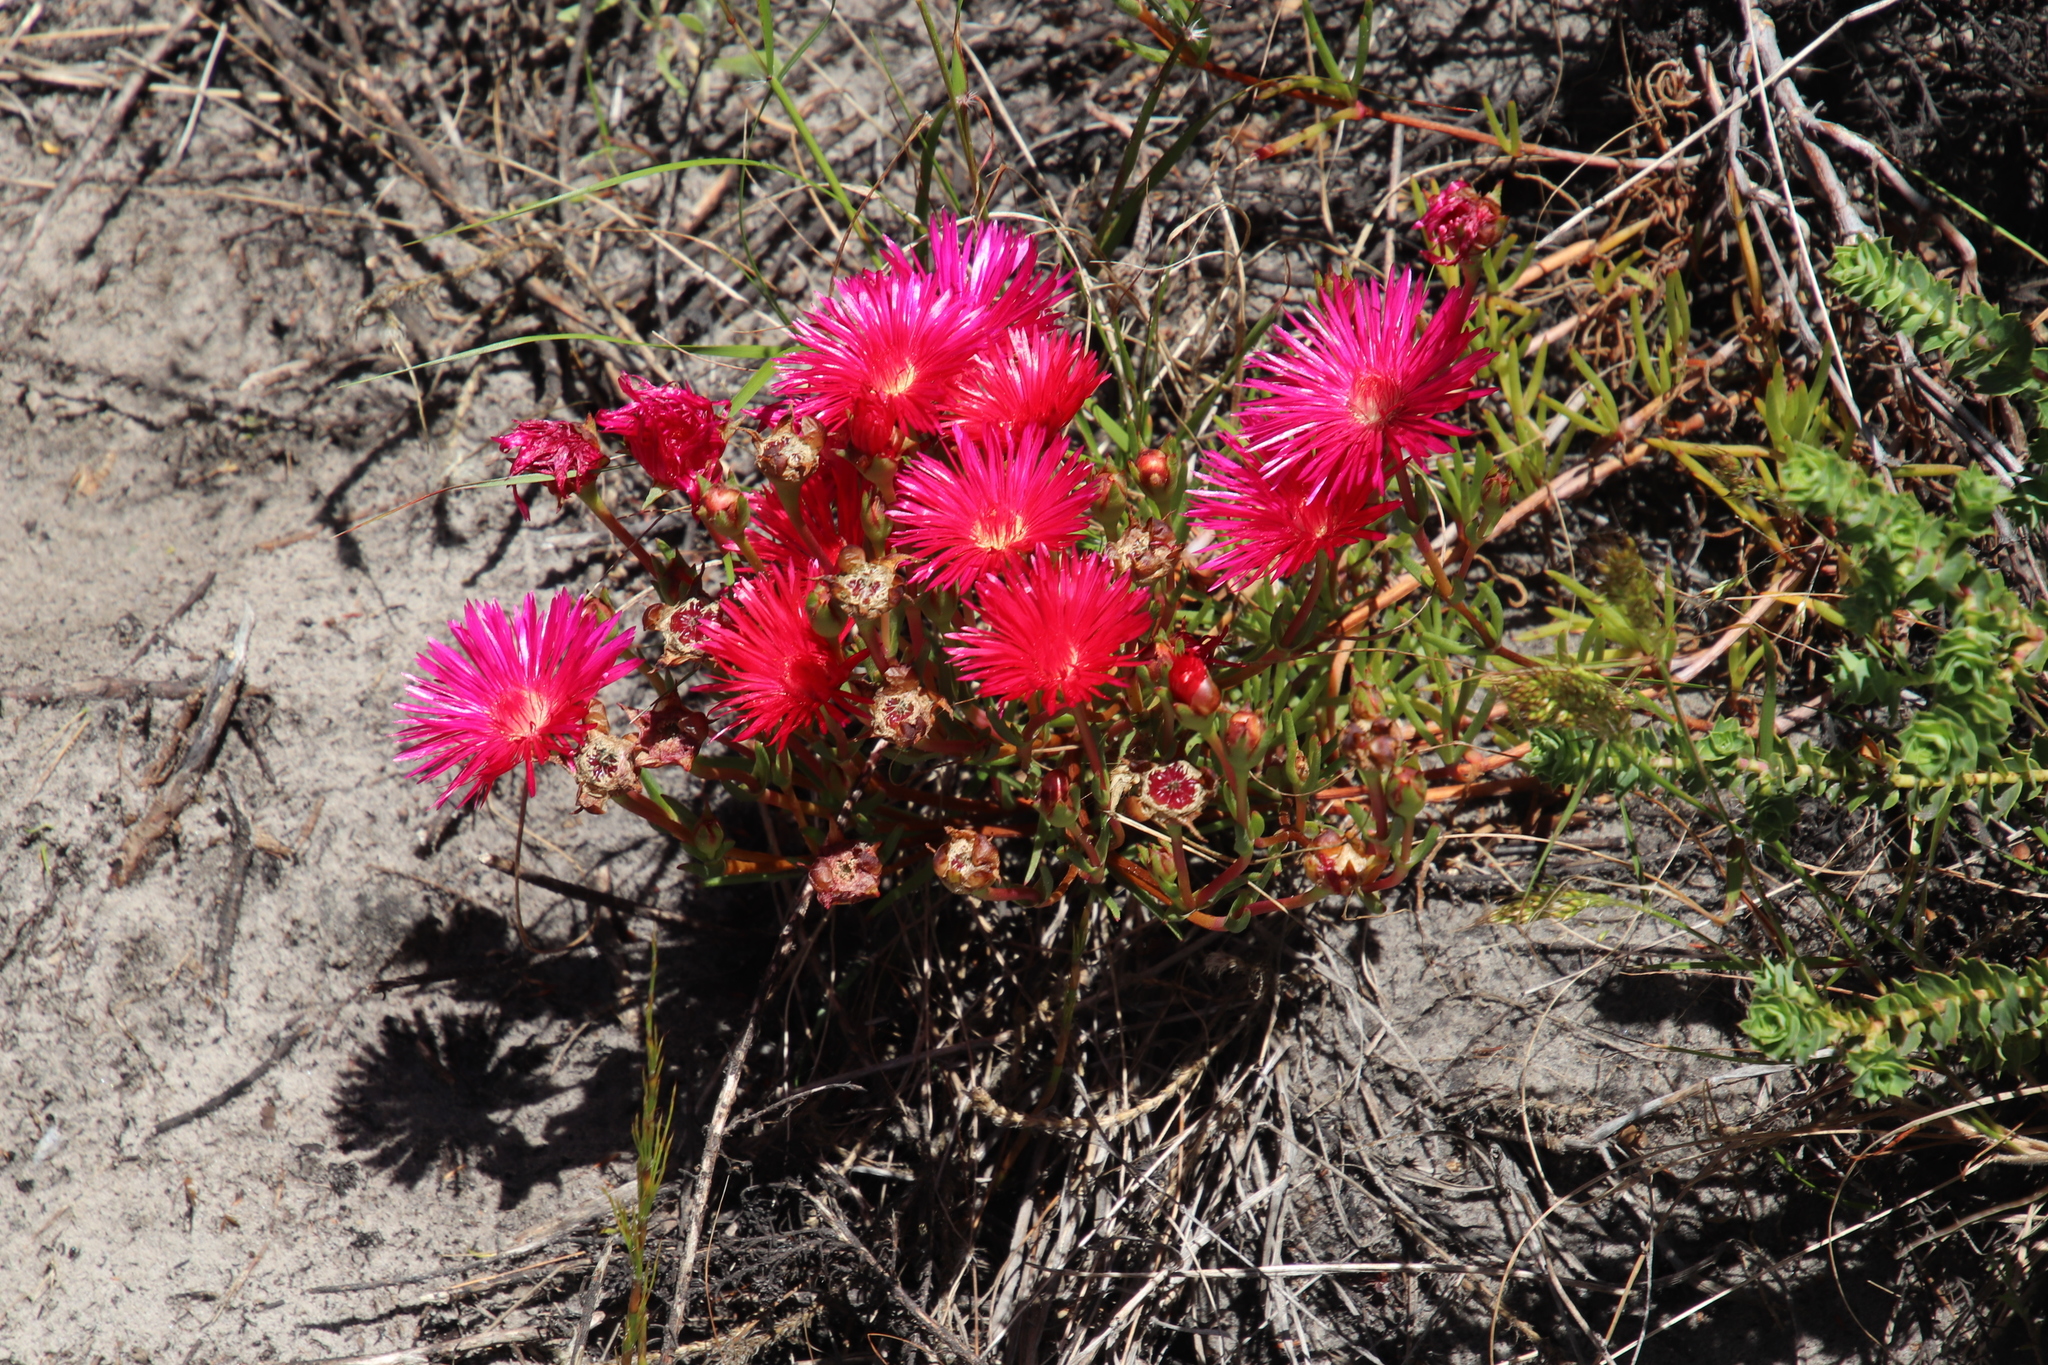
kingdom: Plantae
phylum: Tracheophyta
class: Magnoliopsida
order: Caryophyllales
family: Aizoaceae
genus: Lampranthus
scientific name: Lampranthus tenuifolius
